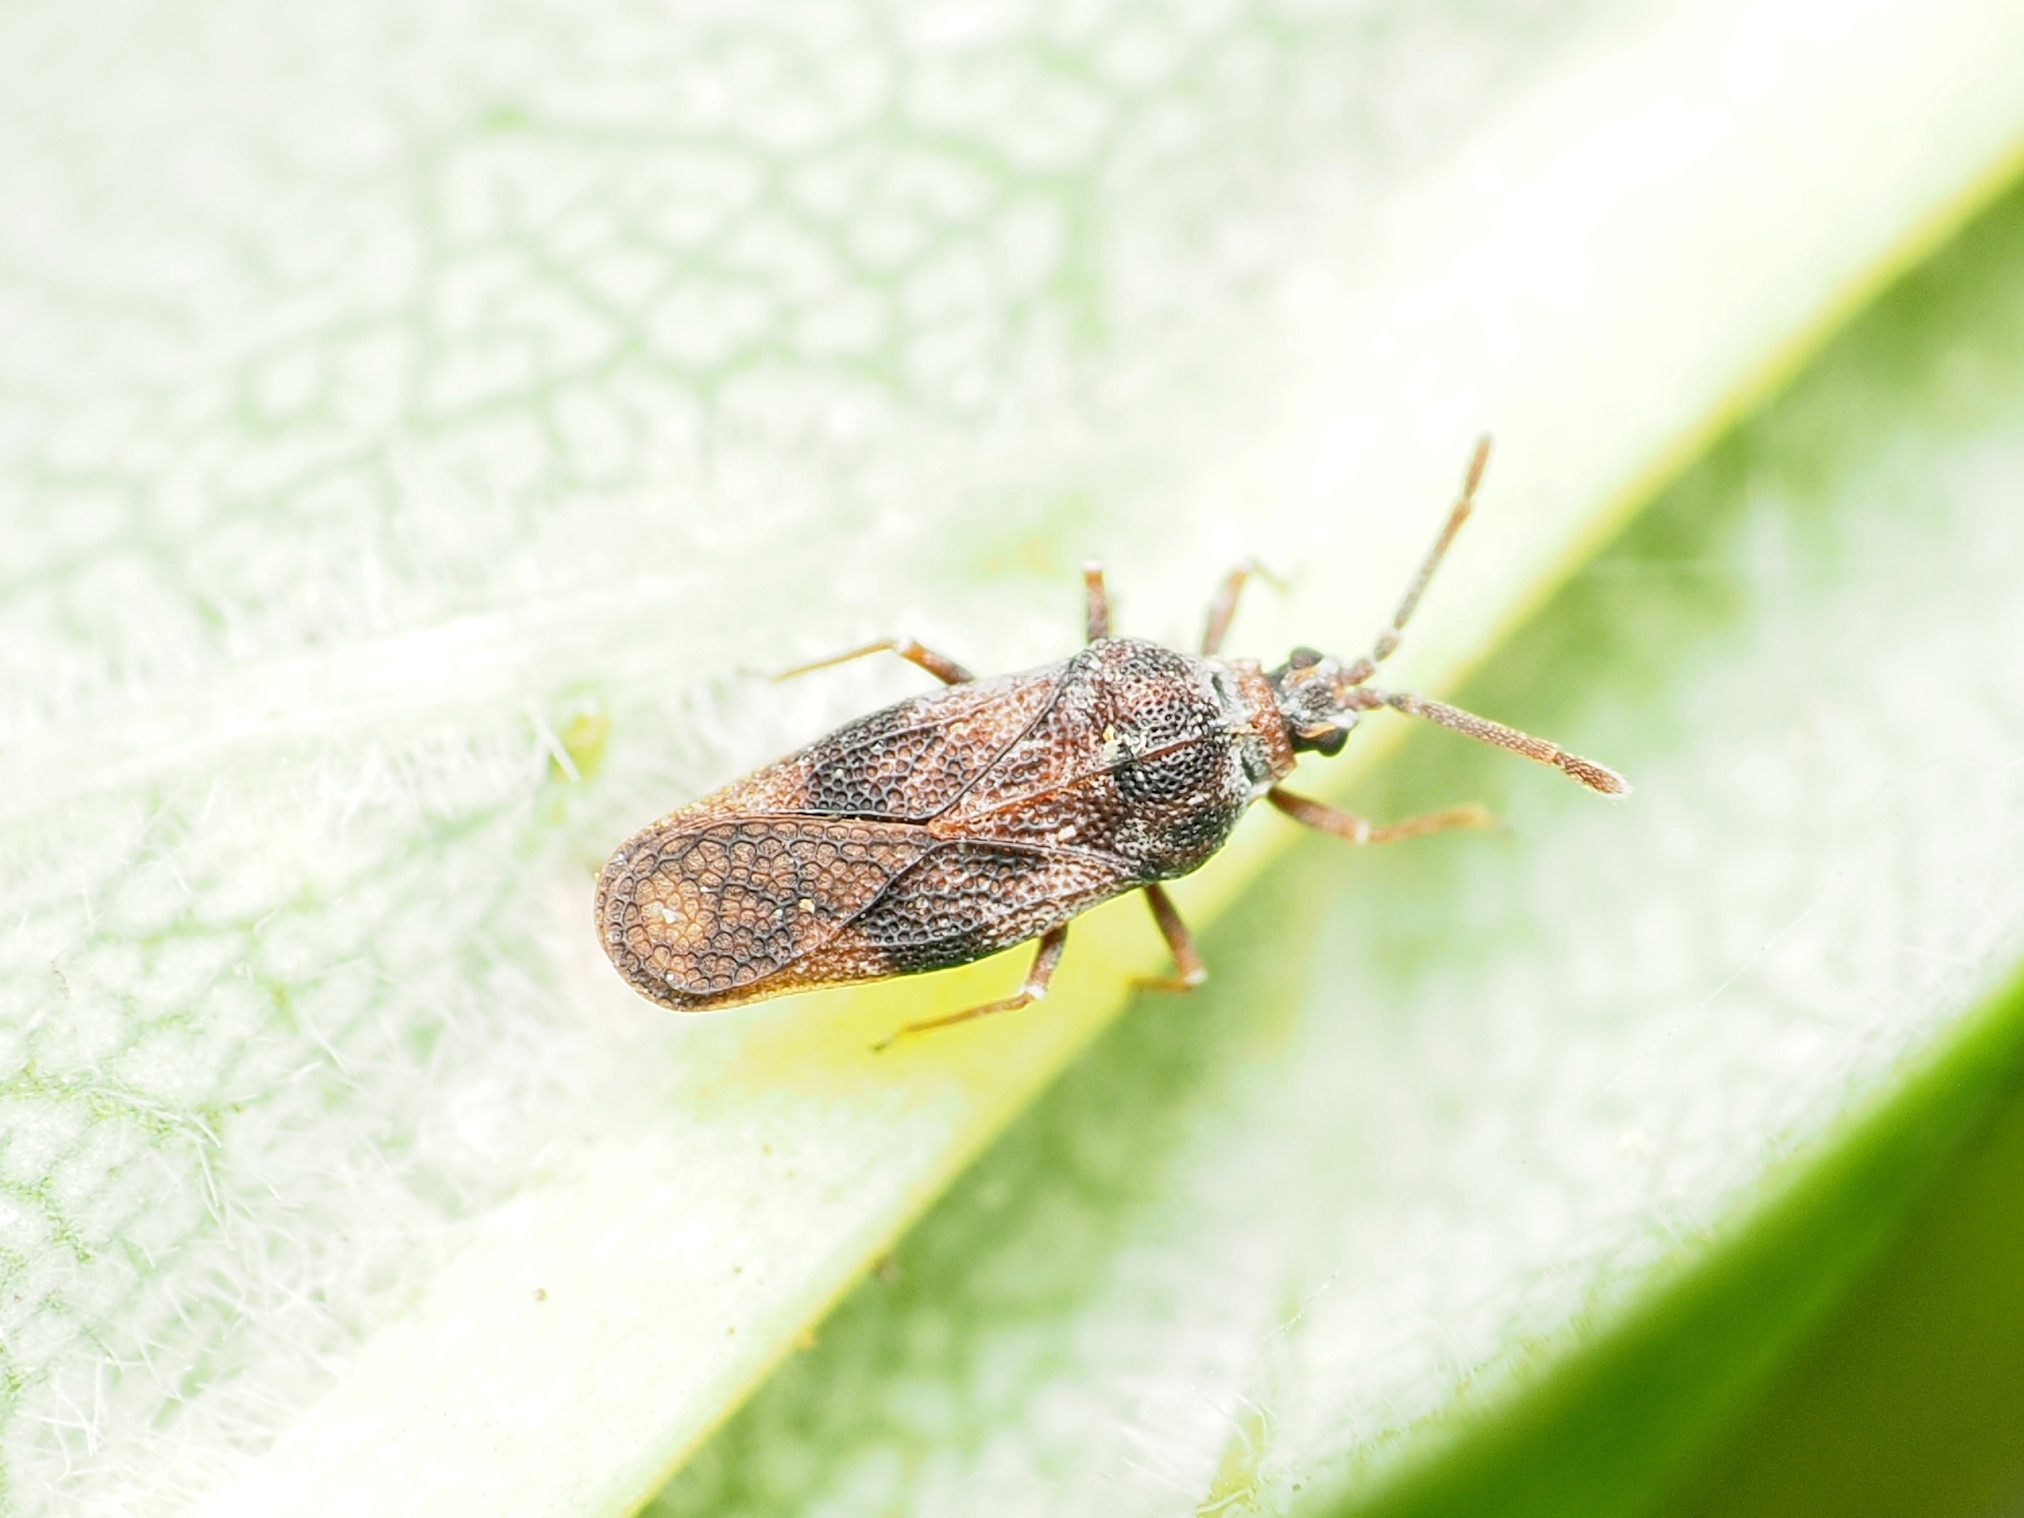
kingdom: Animalia
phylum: Arthropoda
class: Insecta
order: Hemiptera
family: Tingidae
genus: Leptoypha
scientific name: Leptoypha mutica
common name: Fringetree lace bug
